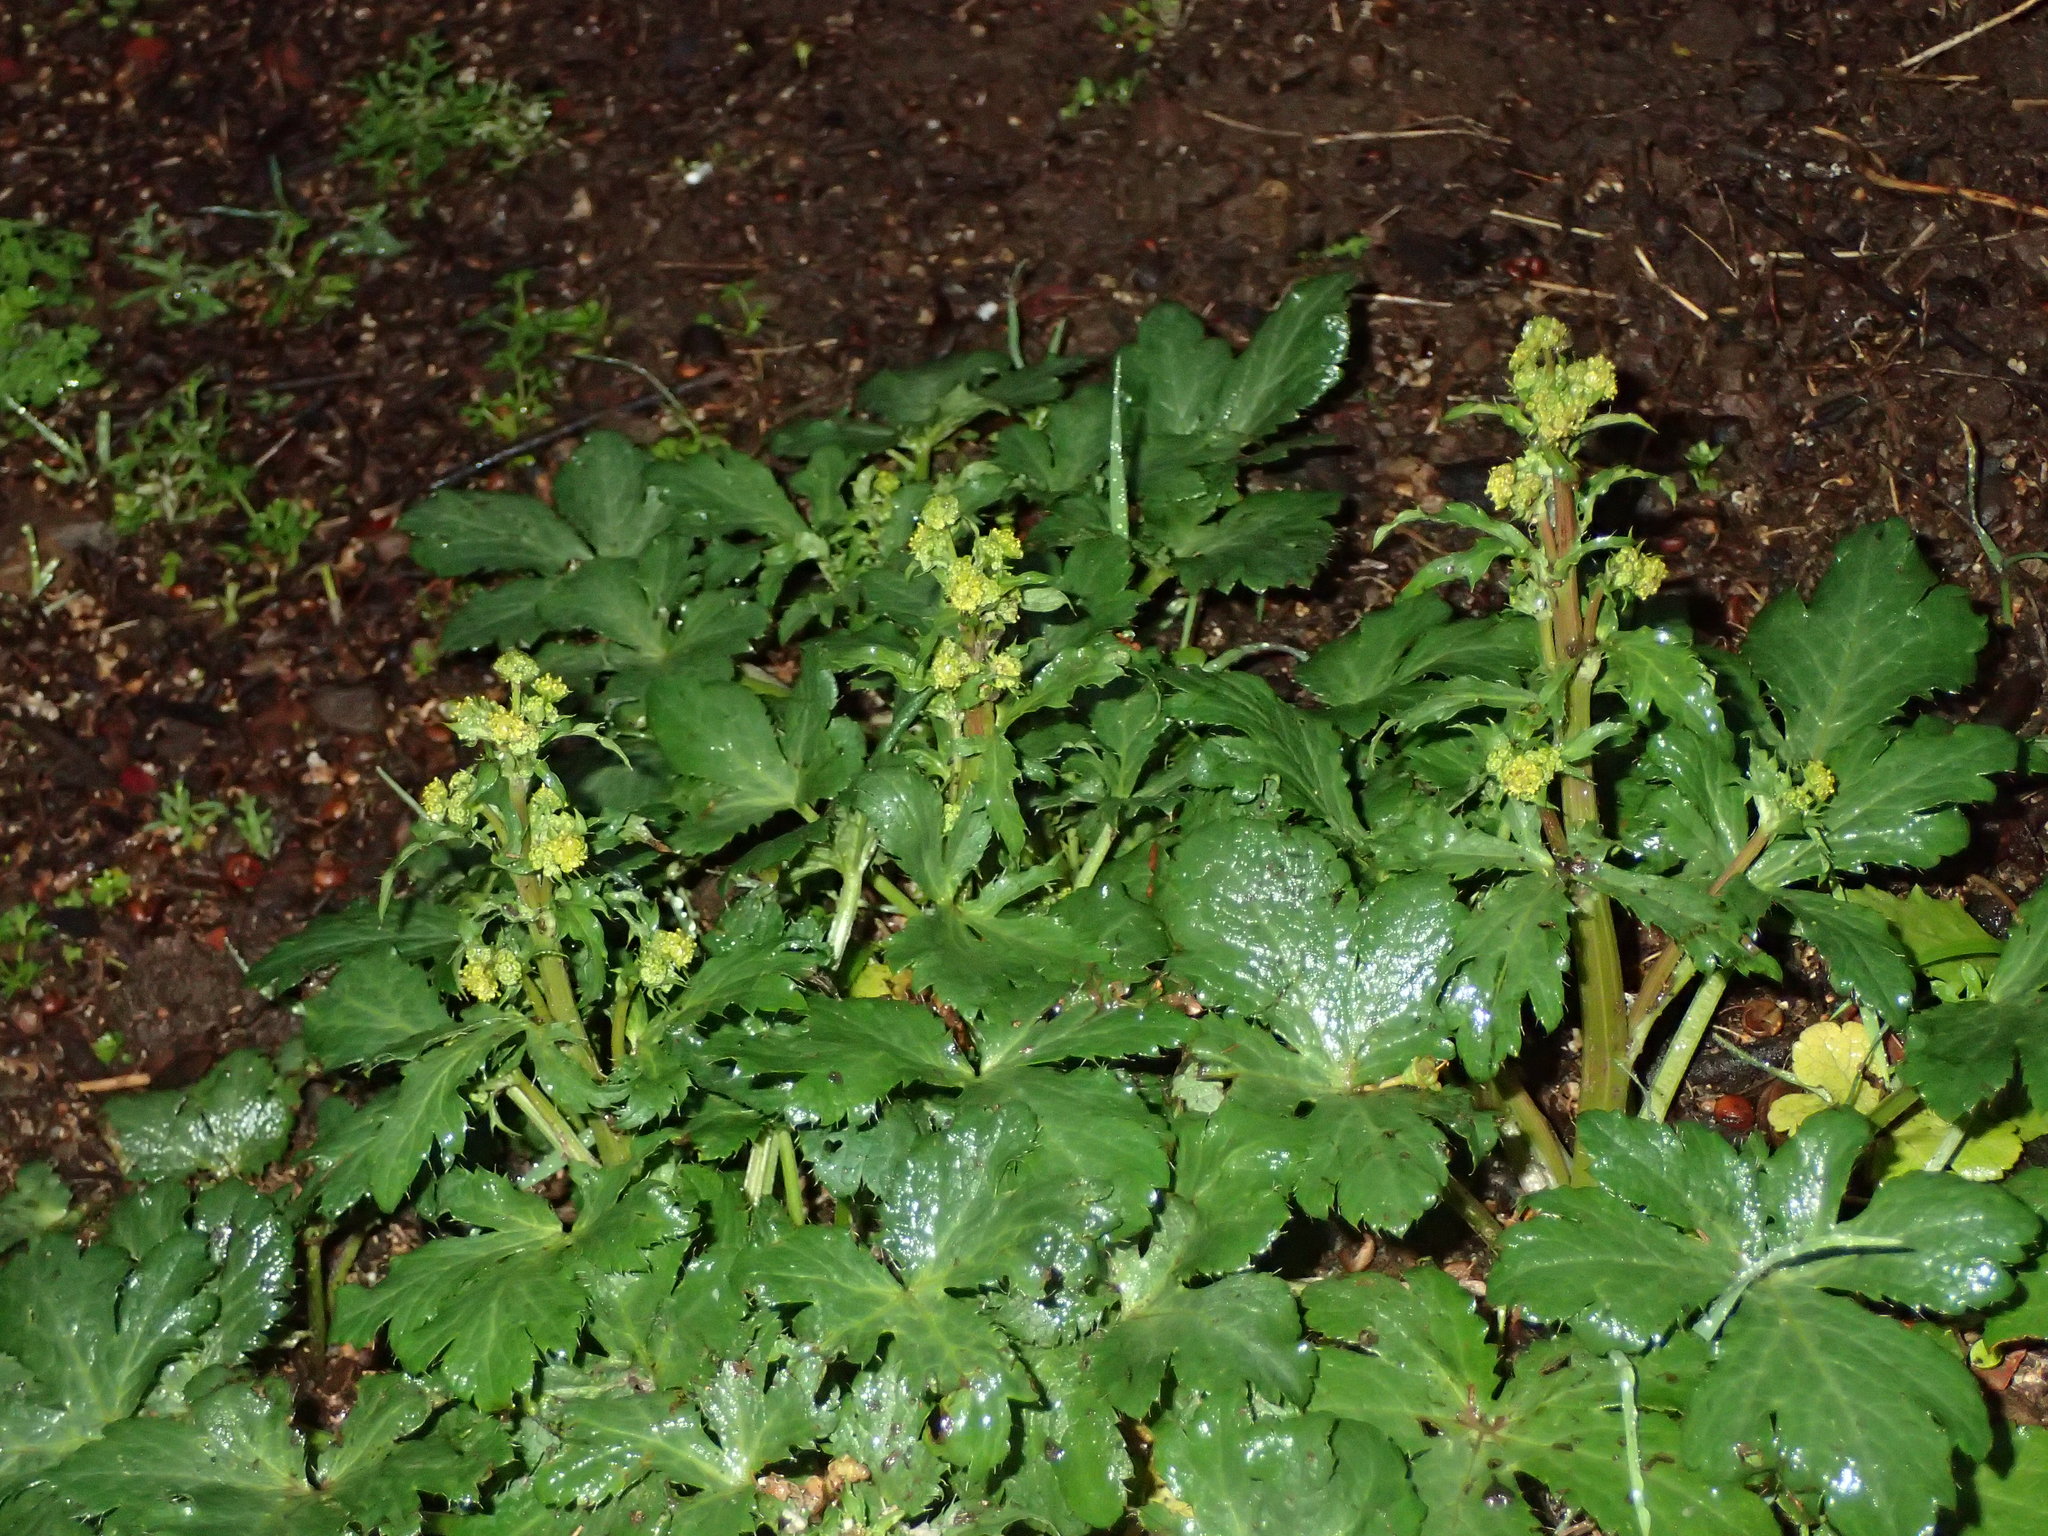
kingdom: Plantae
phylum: Tracheophyta
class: Magnoliopsida
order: Apiales
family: Apiaceae
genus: Sanicula
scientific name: Sanicula crassicaulis
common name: Western snakeroot
